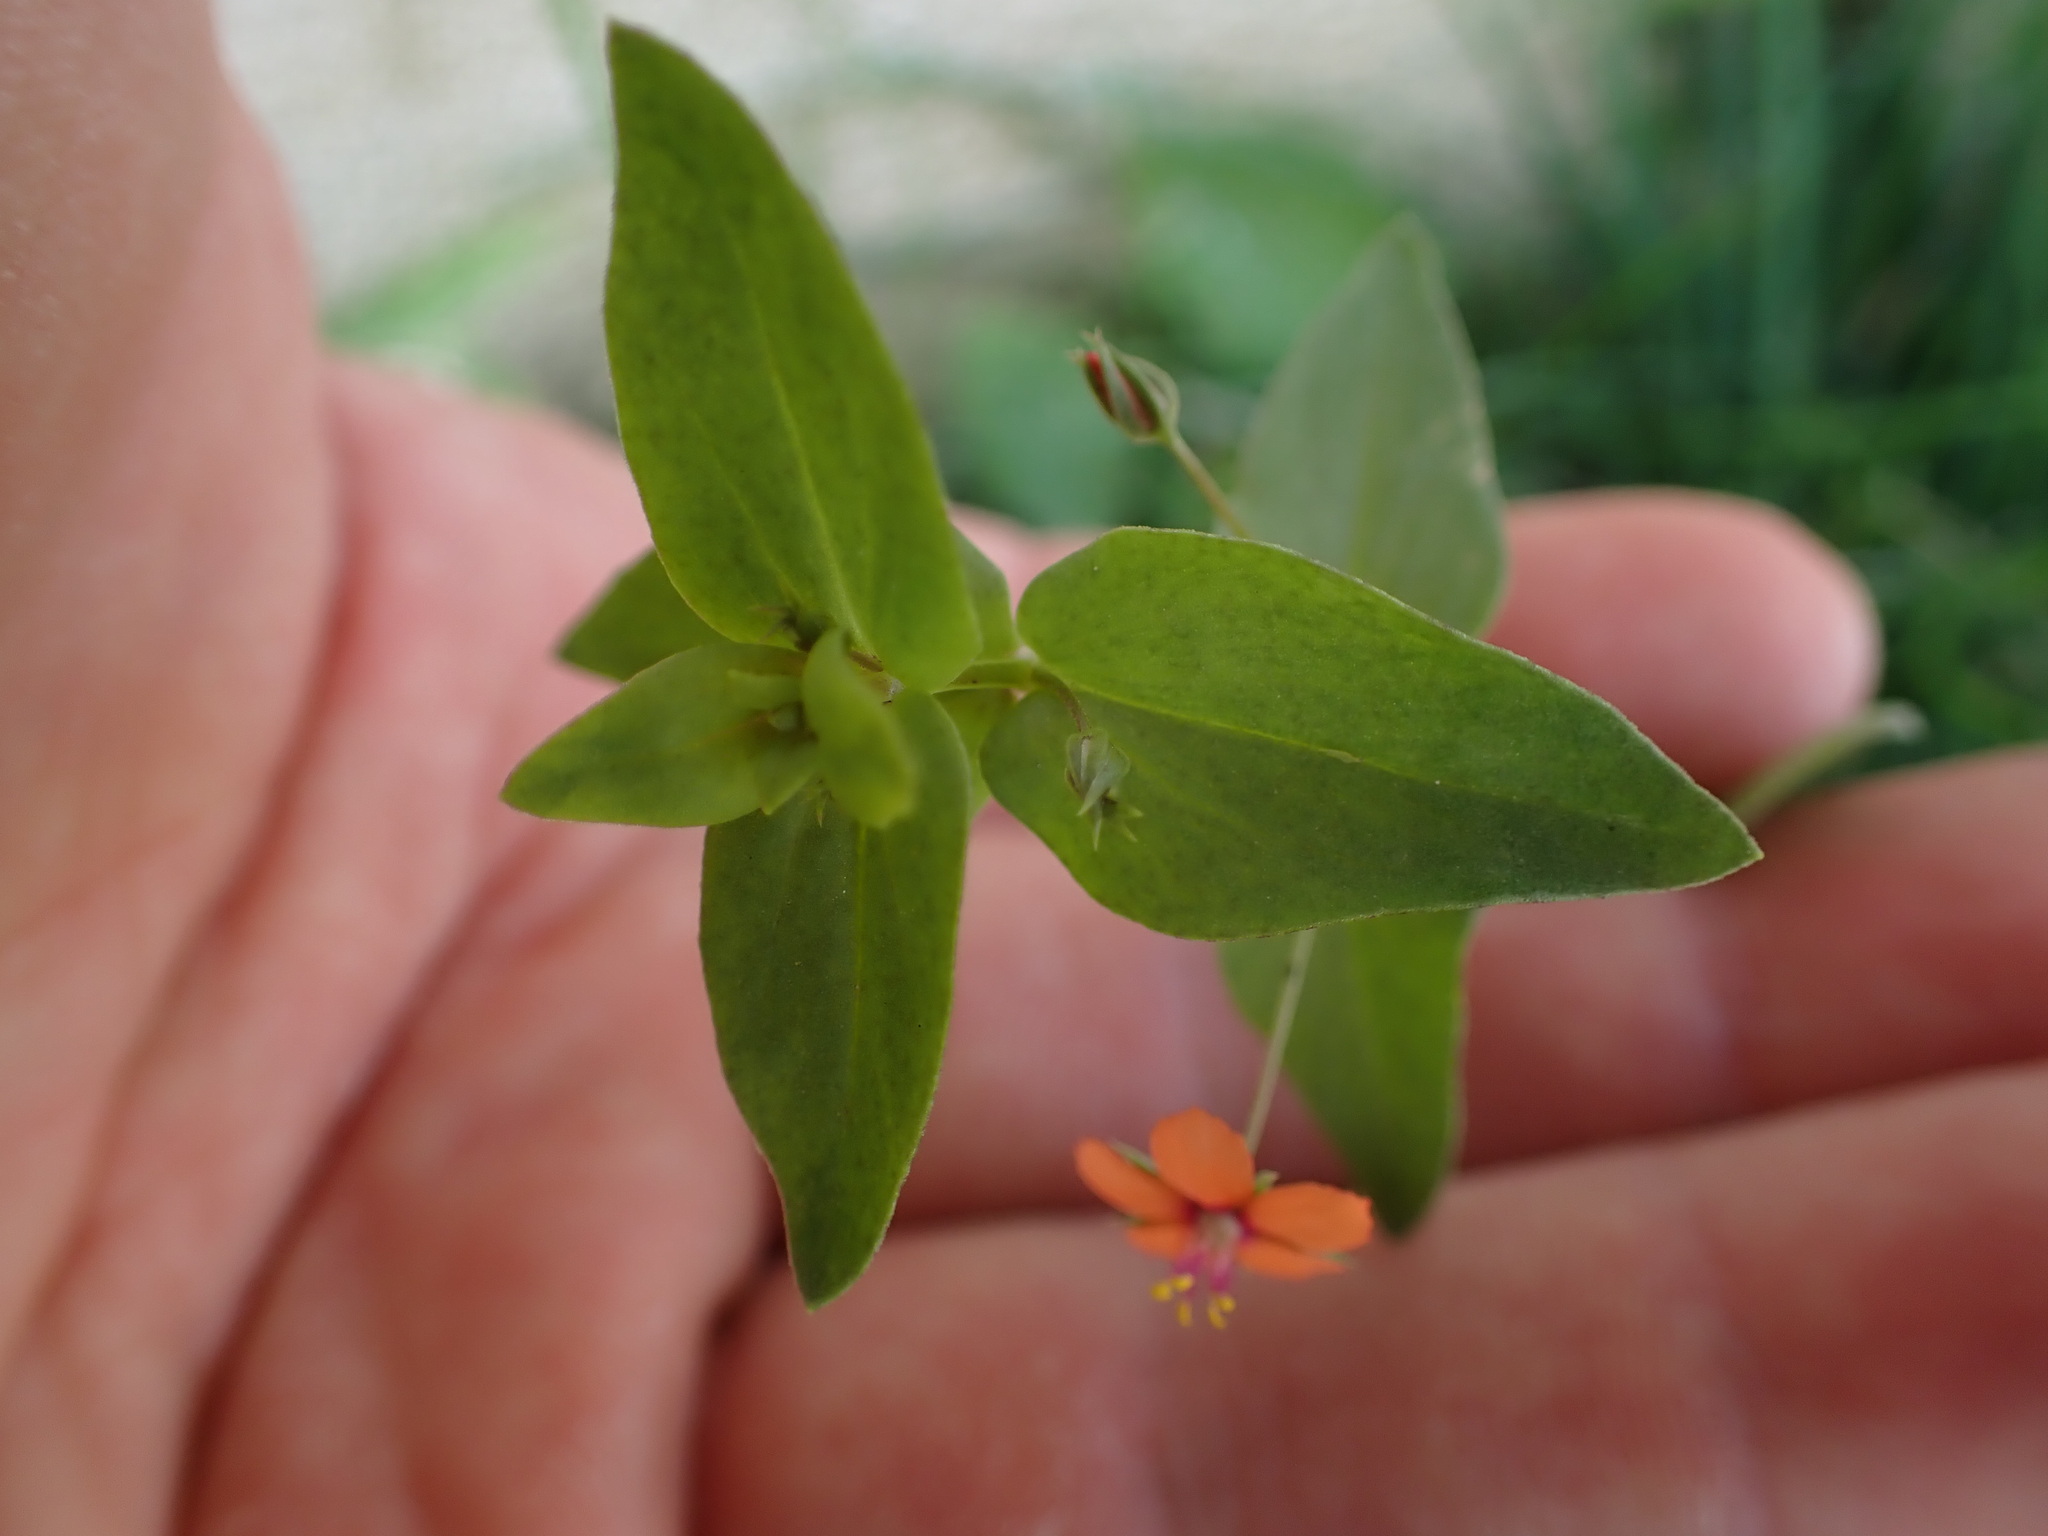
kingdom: Plantae
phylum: Tracheophyta
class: Magnoliopsida
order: Ericales
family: Primulaceae
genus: Lysimachia
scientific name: Lysimachia arvensis
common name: Scarlet pimpernel
